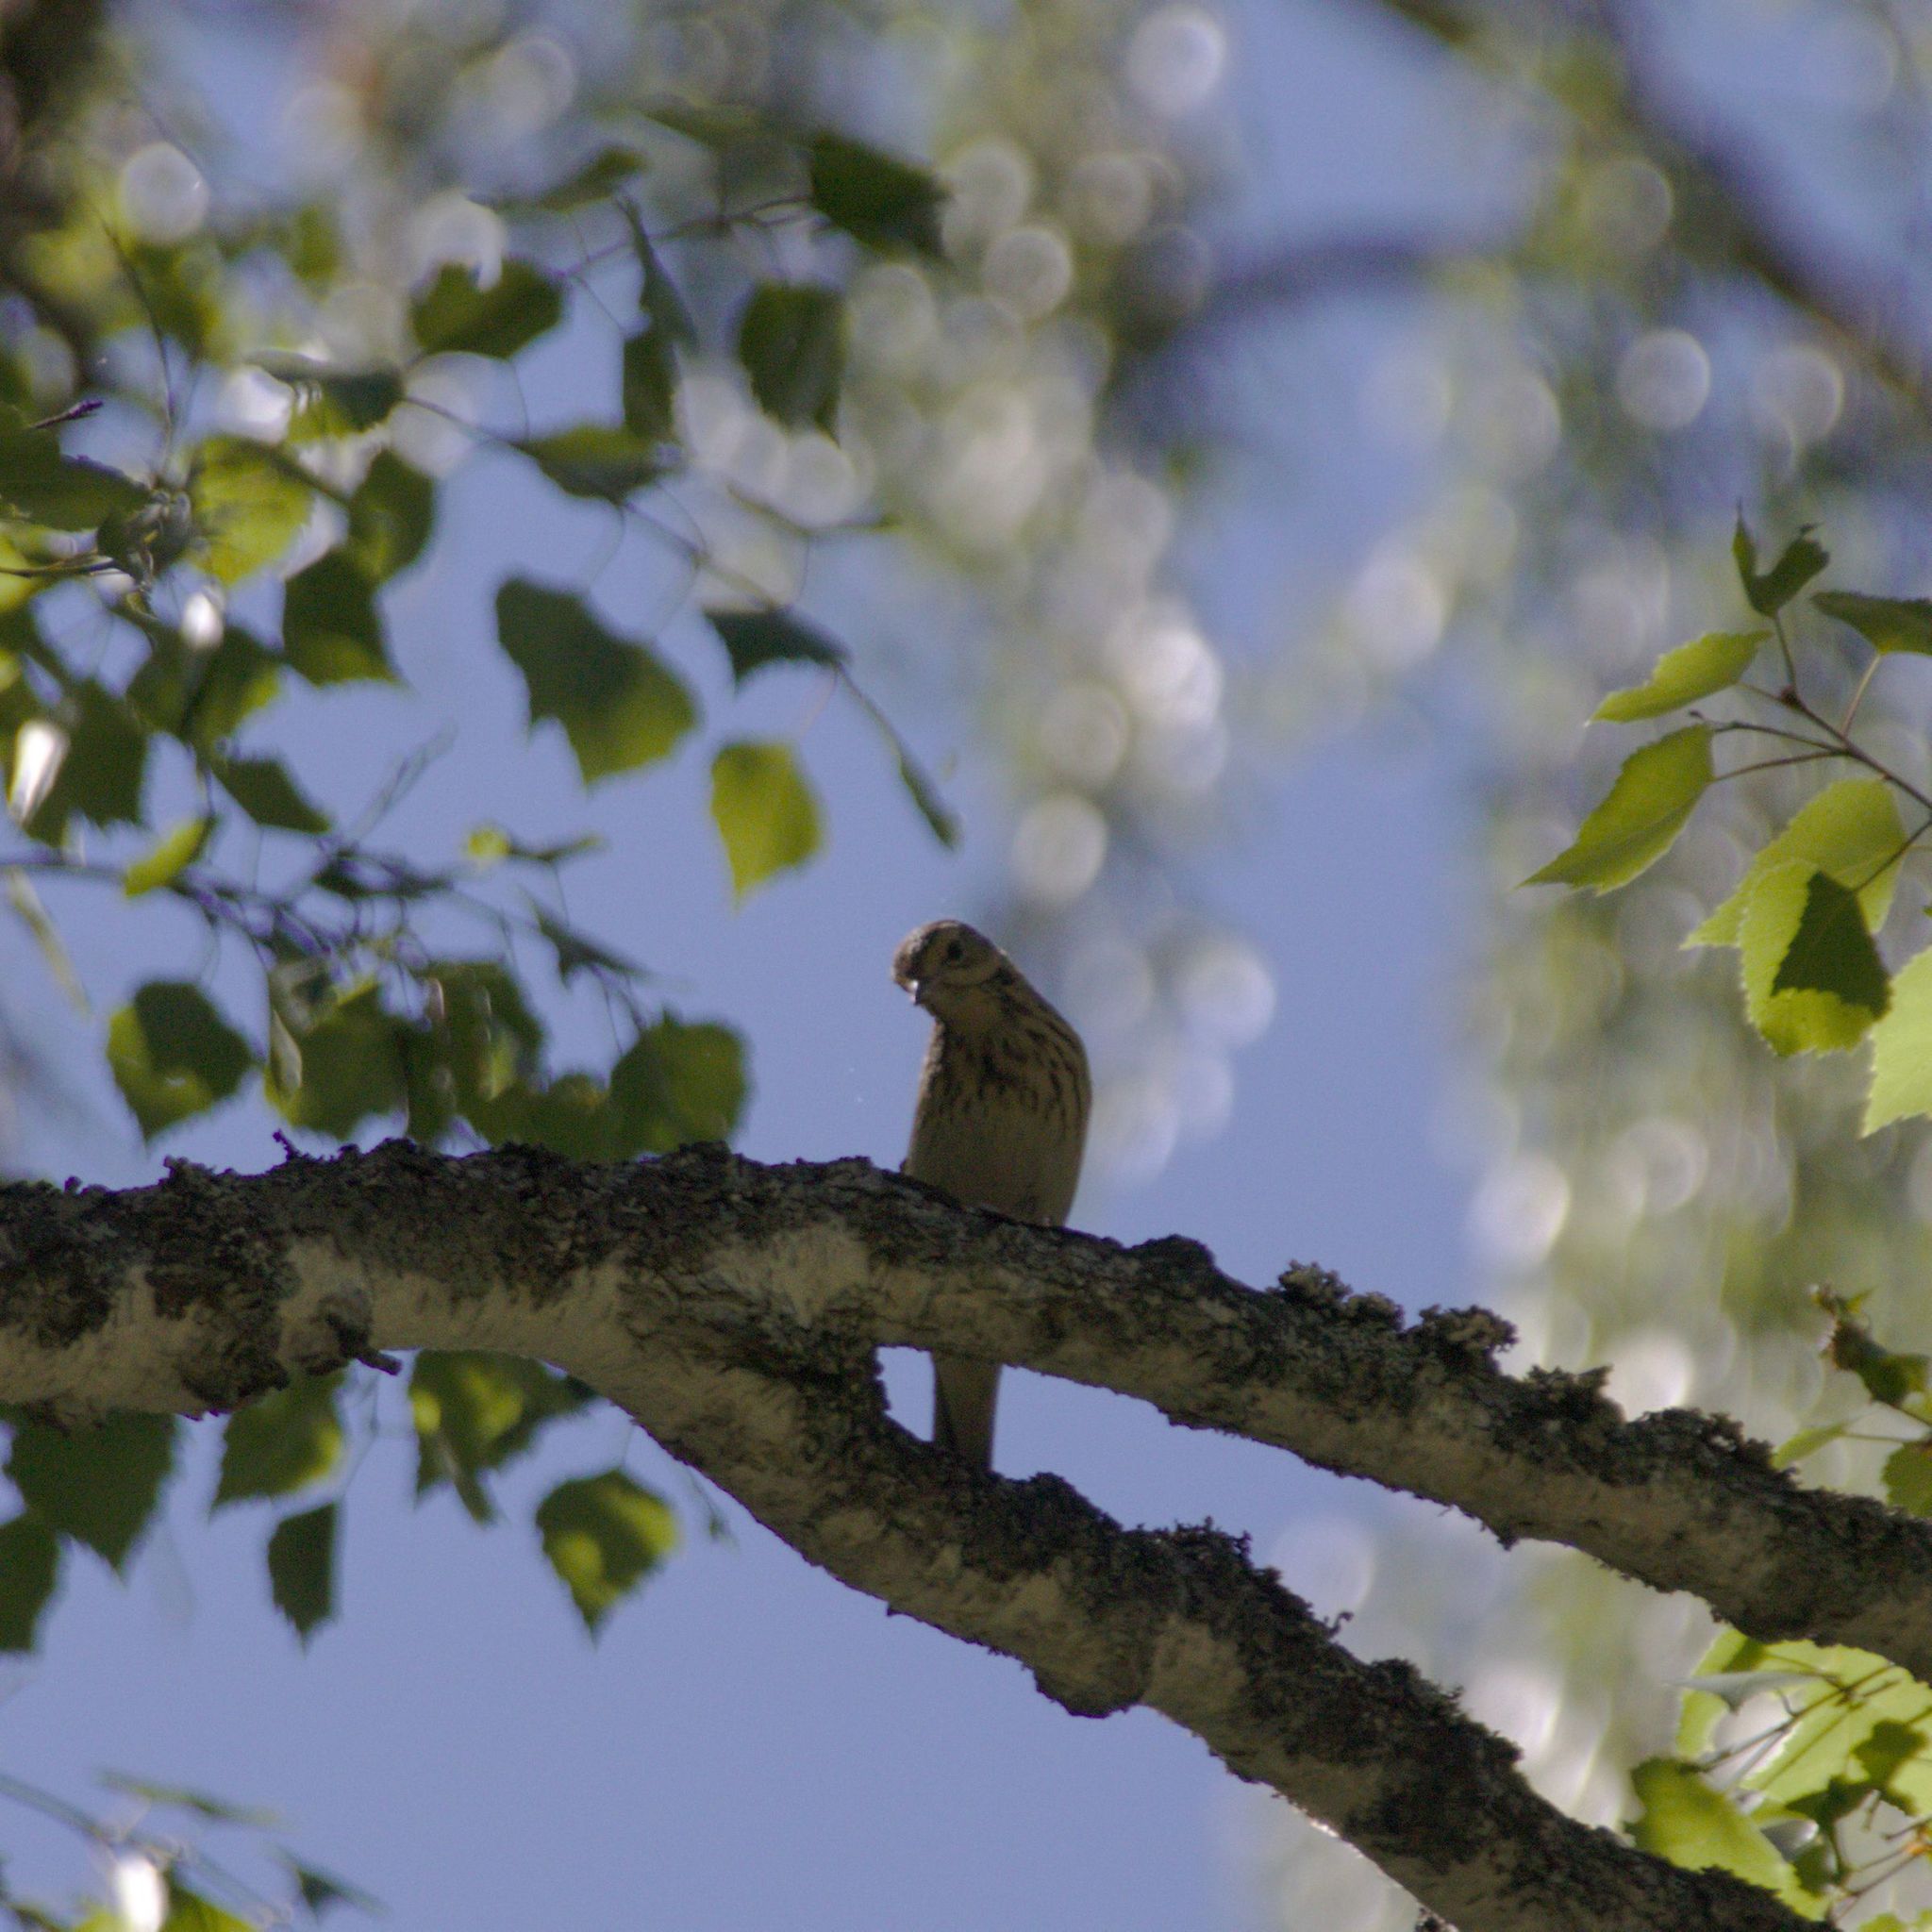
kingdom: Animalia
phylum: Chordata
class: Aves
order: Passeriformes
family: Motacillidae
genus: Anthus
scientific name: Anthus trivialis
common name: Tree pipit
